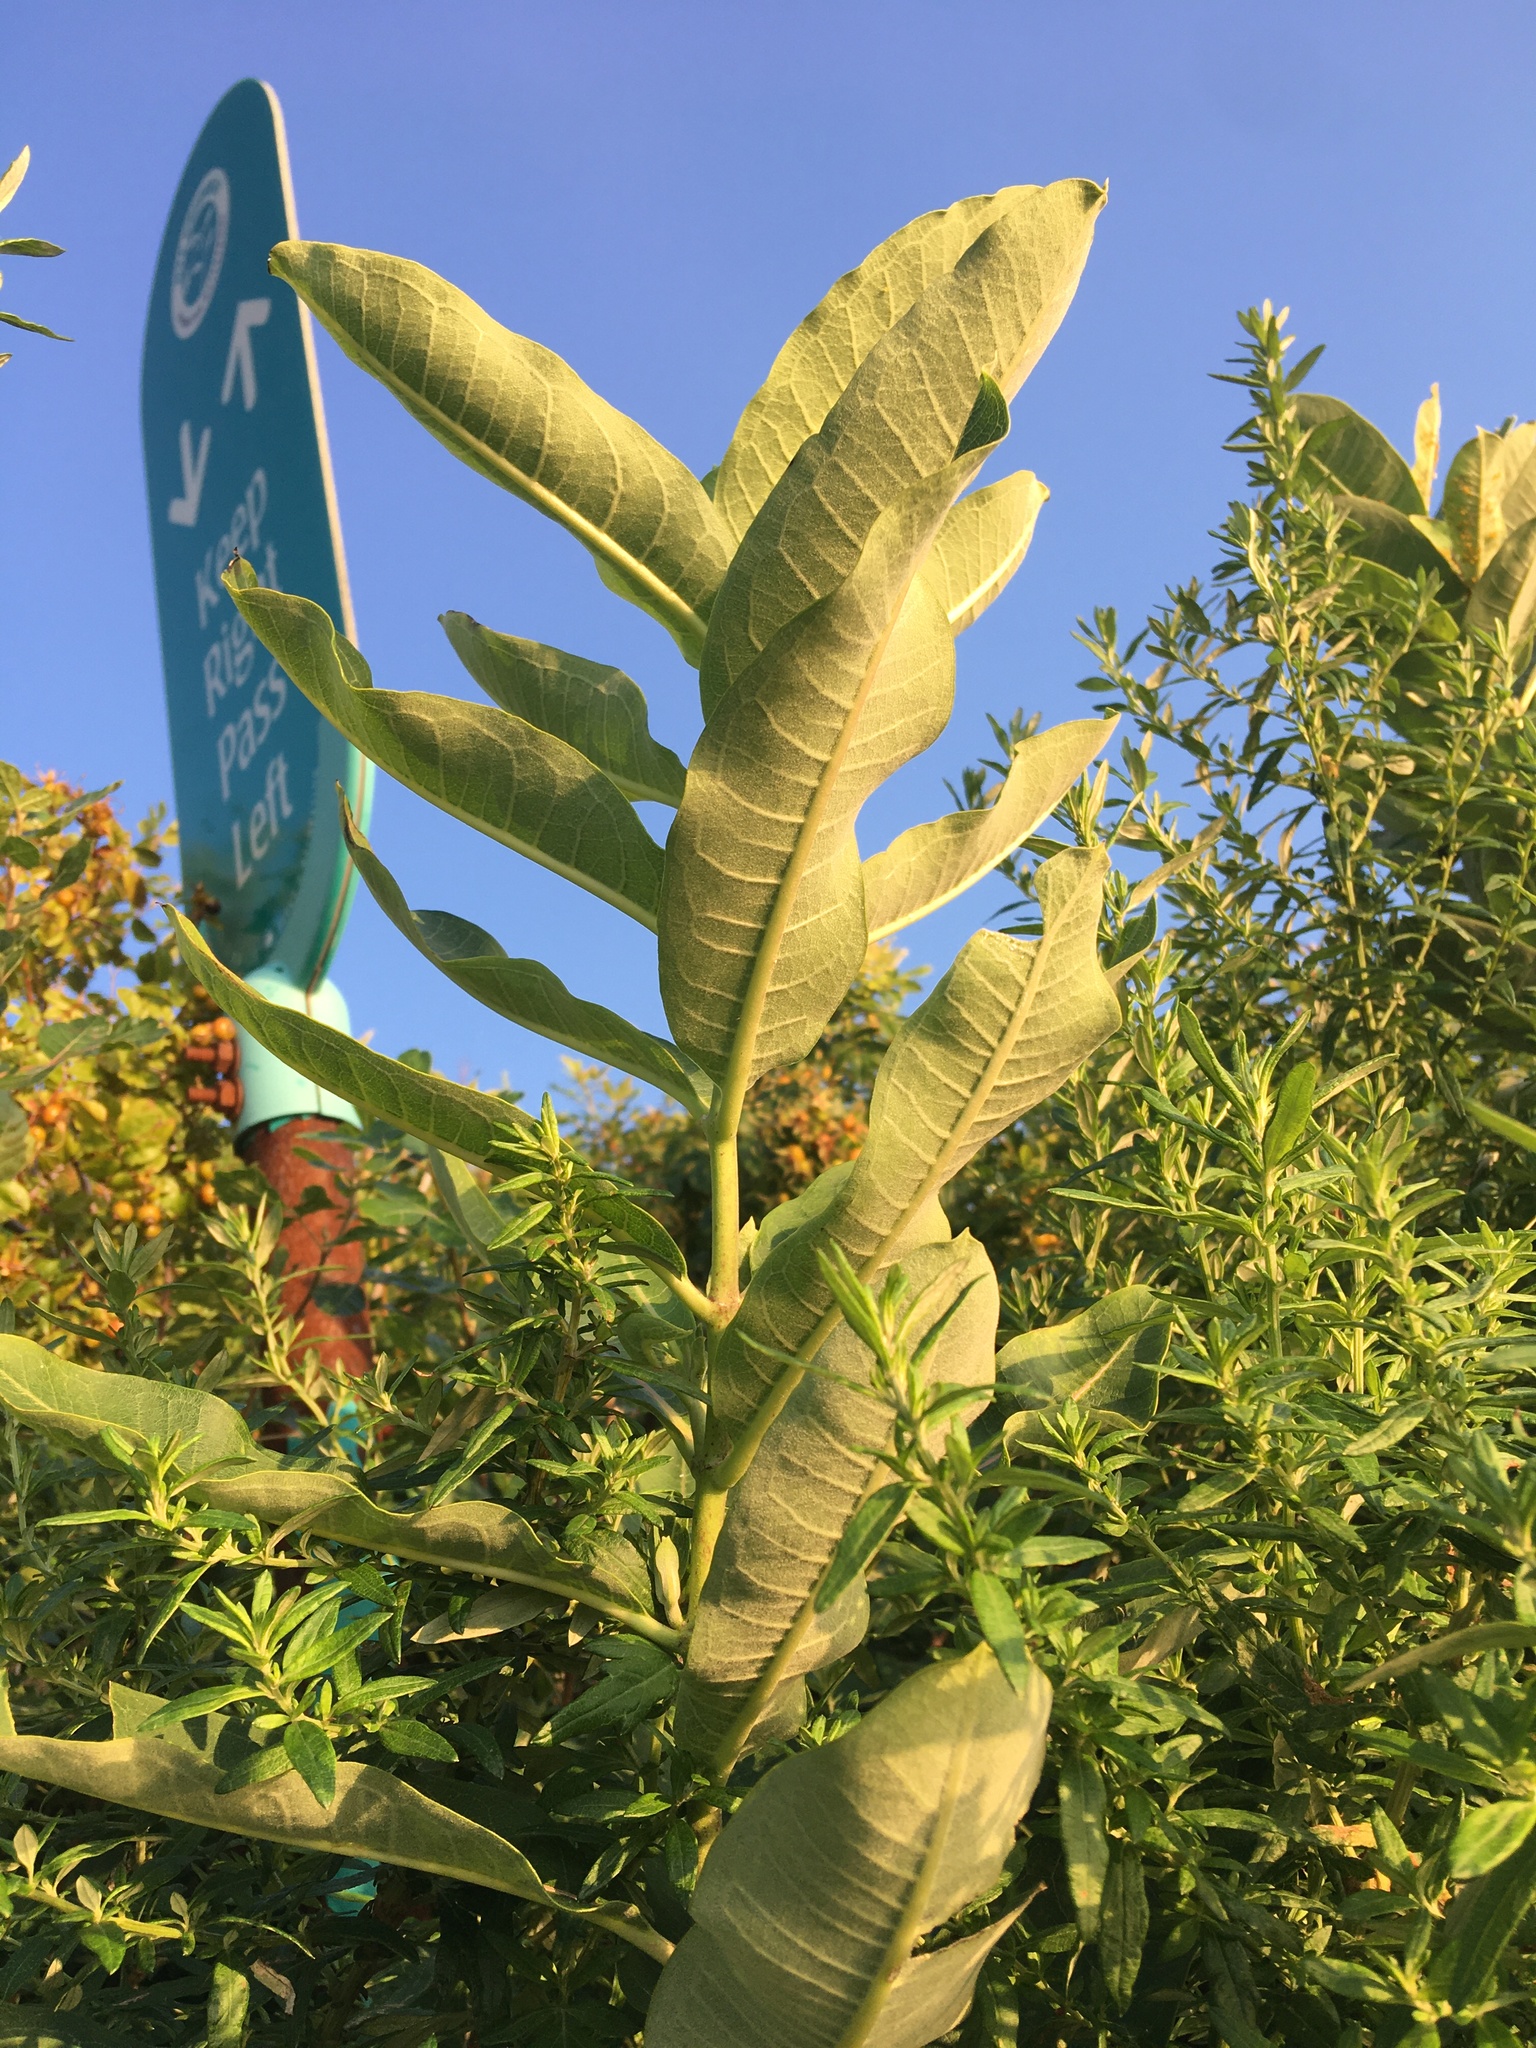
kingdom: Plantae
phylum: Tracheophyta
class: Magnoliopsida
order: Gentianales
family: Apocynaceae
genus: Asclepias
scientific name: Asclepias syriaca
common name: Common milkweed
